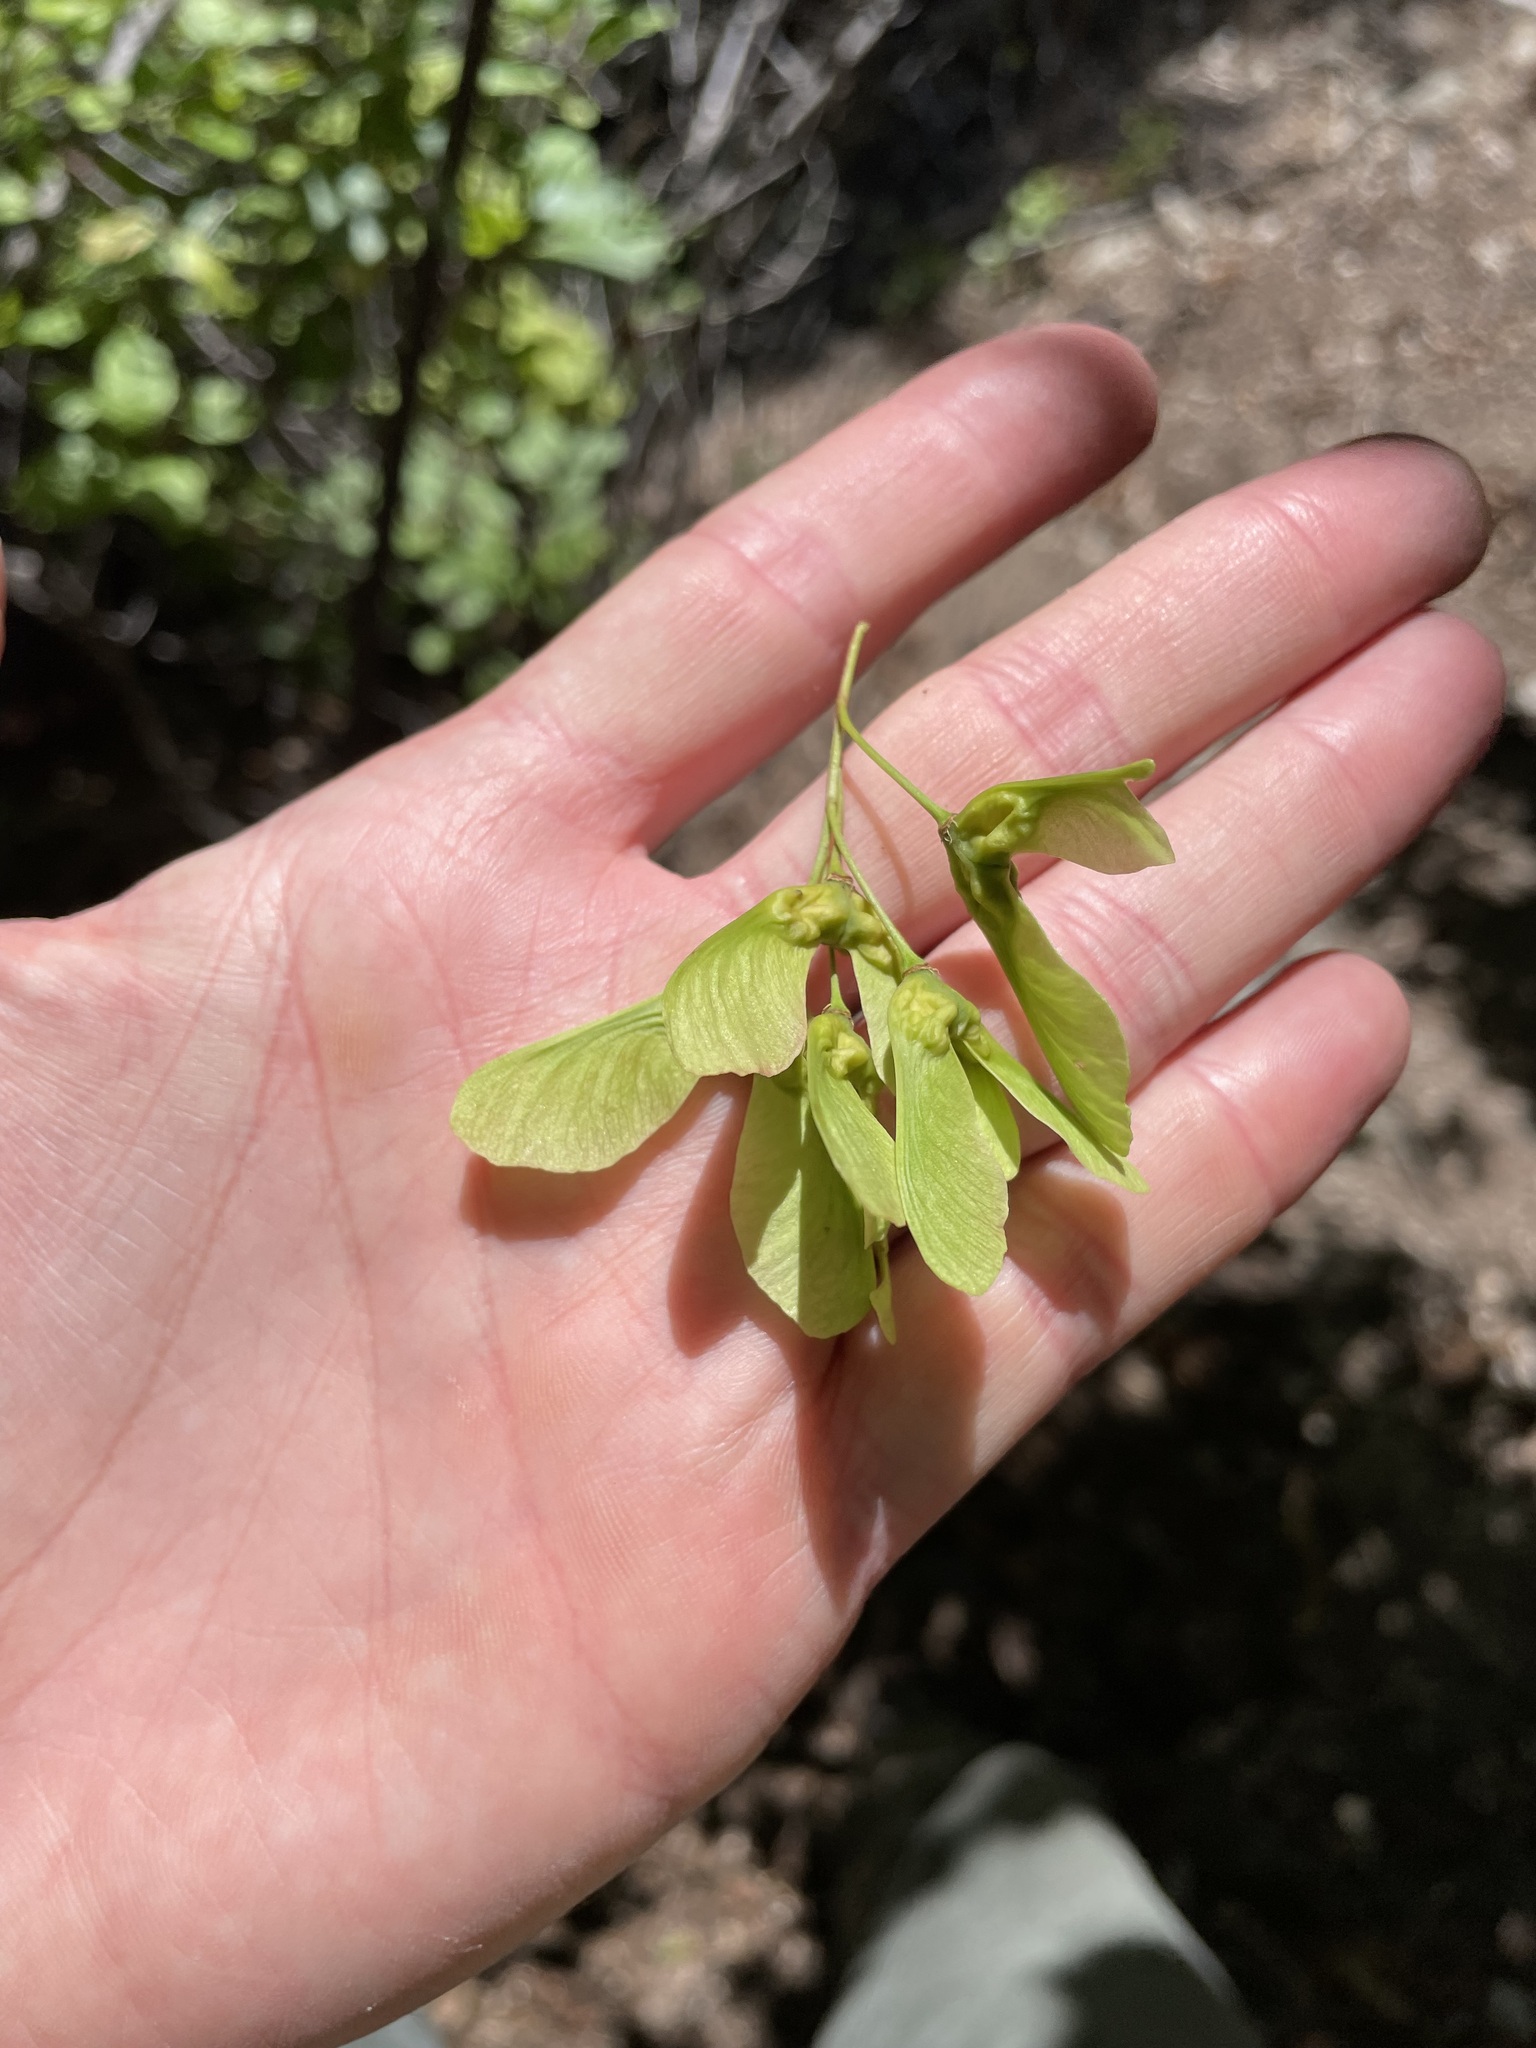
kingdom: Plantae
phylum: Tracheophyta
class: Magnoliopsida
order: Sapindales
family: Sapindaceae
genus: Acer
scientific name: Acer glabrum
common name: Rocky mountain maple
